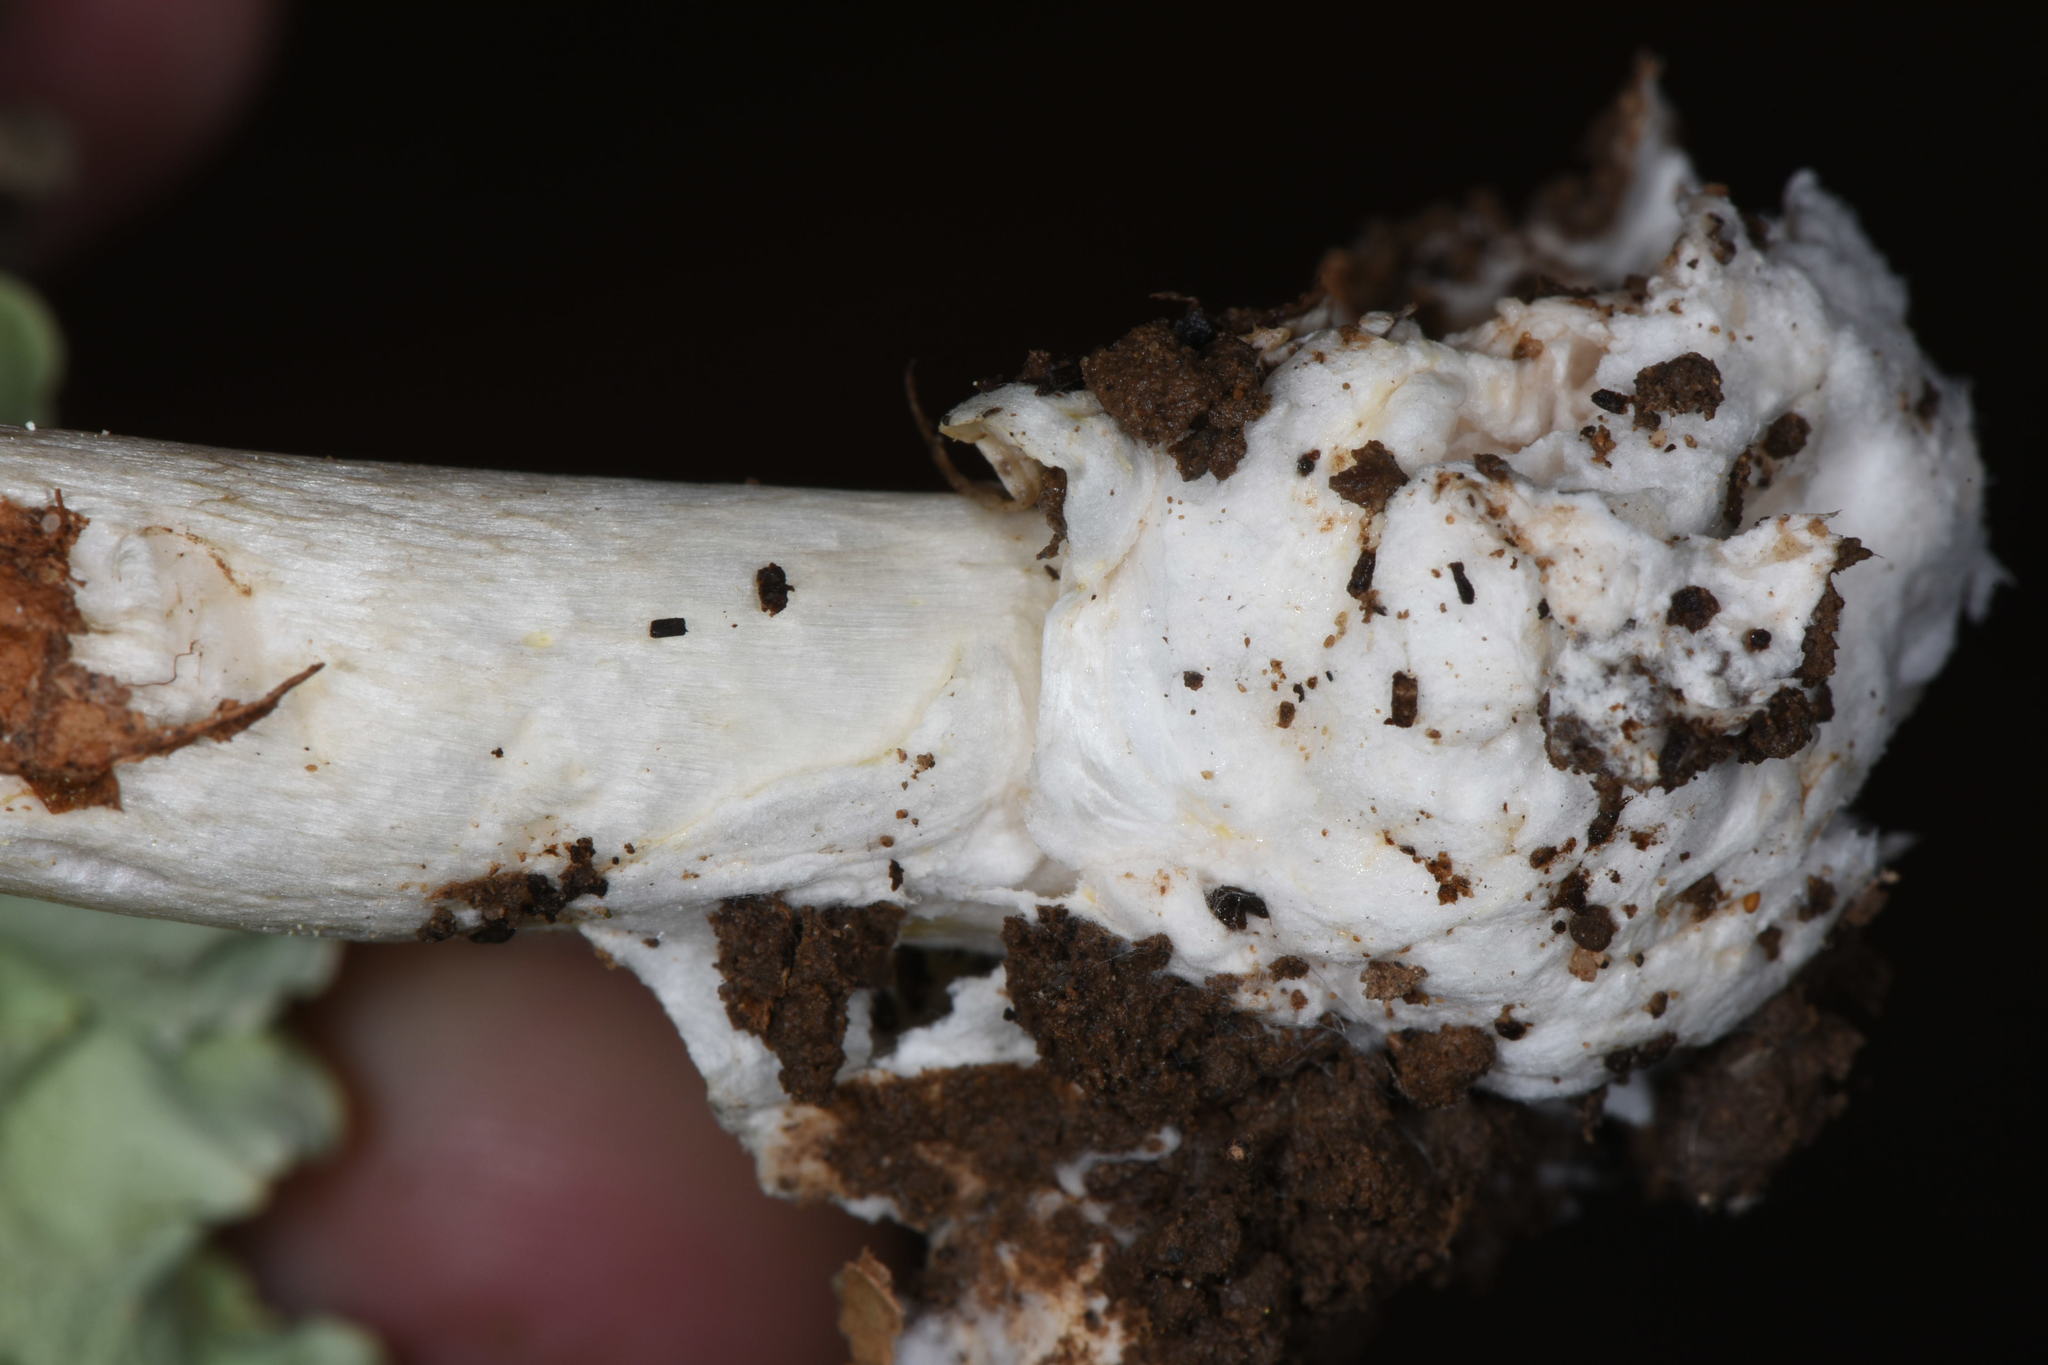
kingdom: Fungi
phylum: Basidiomycota
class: Agaricomycetes
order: Agaricales
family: Amanitaceae
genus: Amanita
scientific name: Amanita phalloides
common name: Death cap
